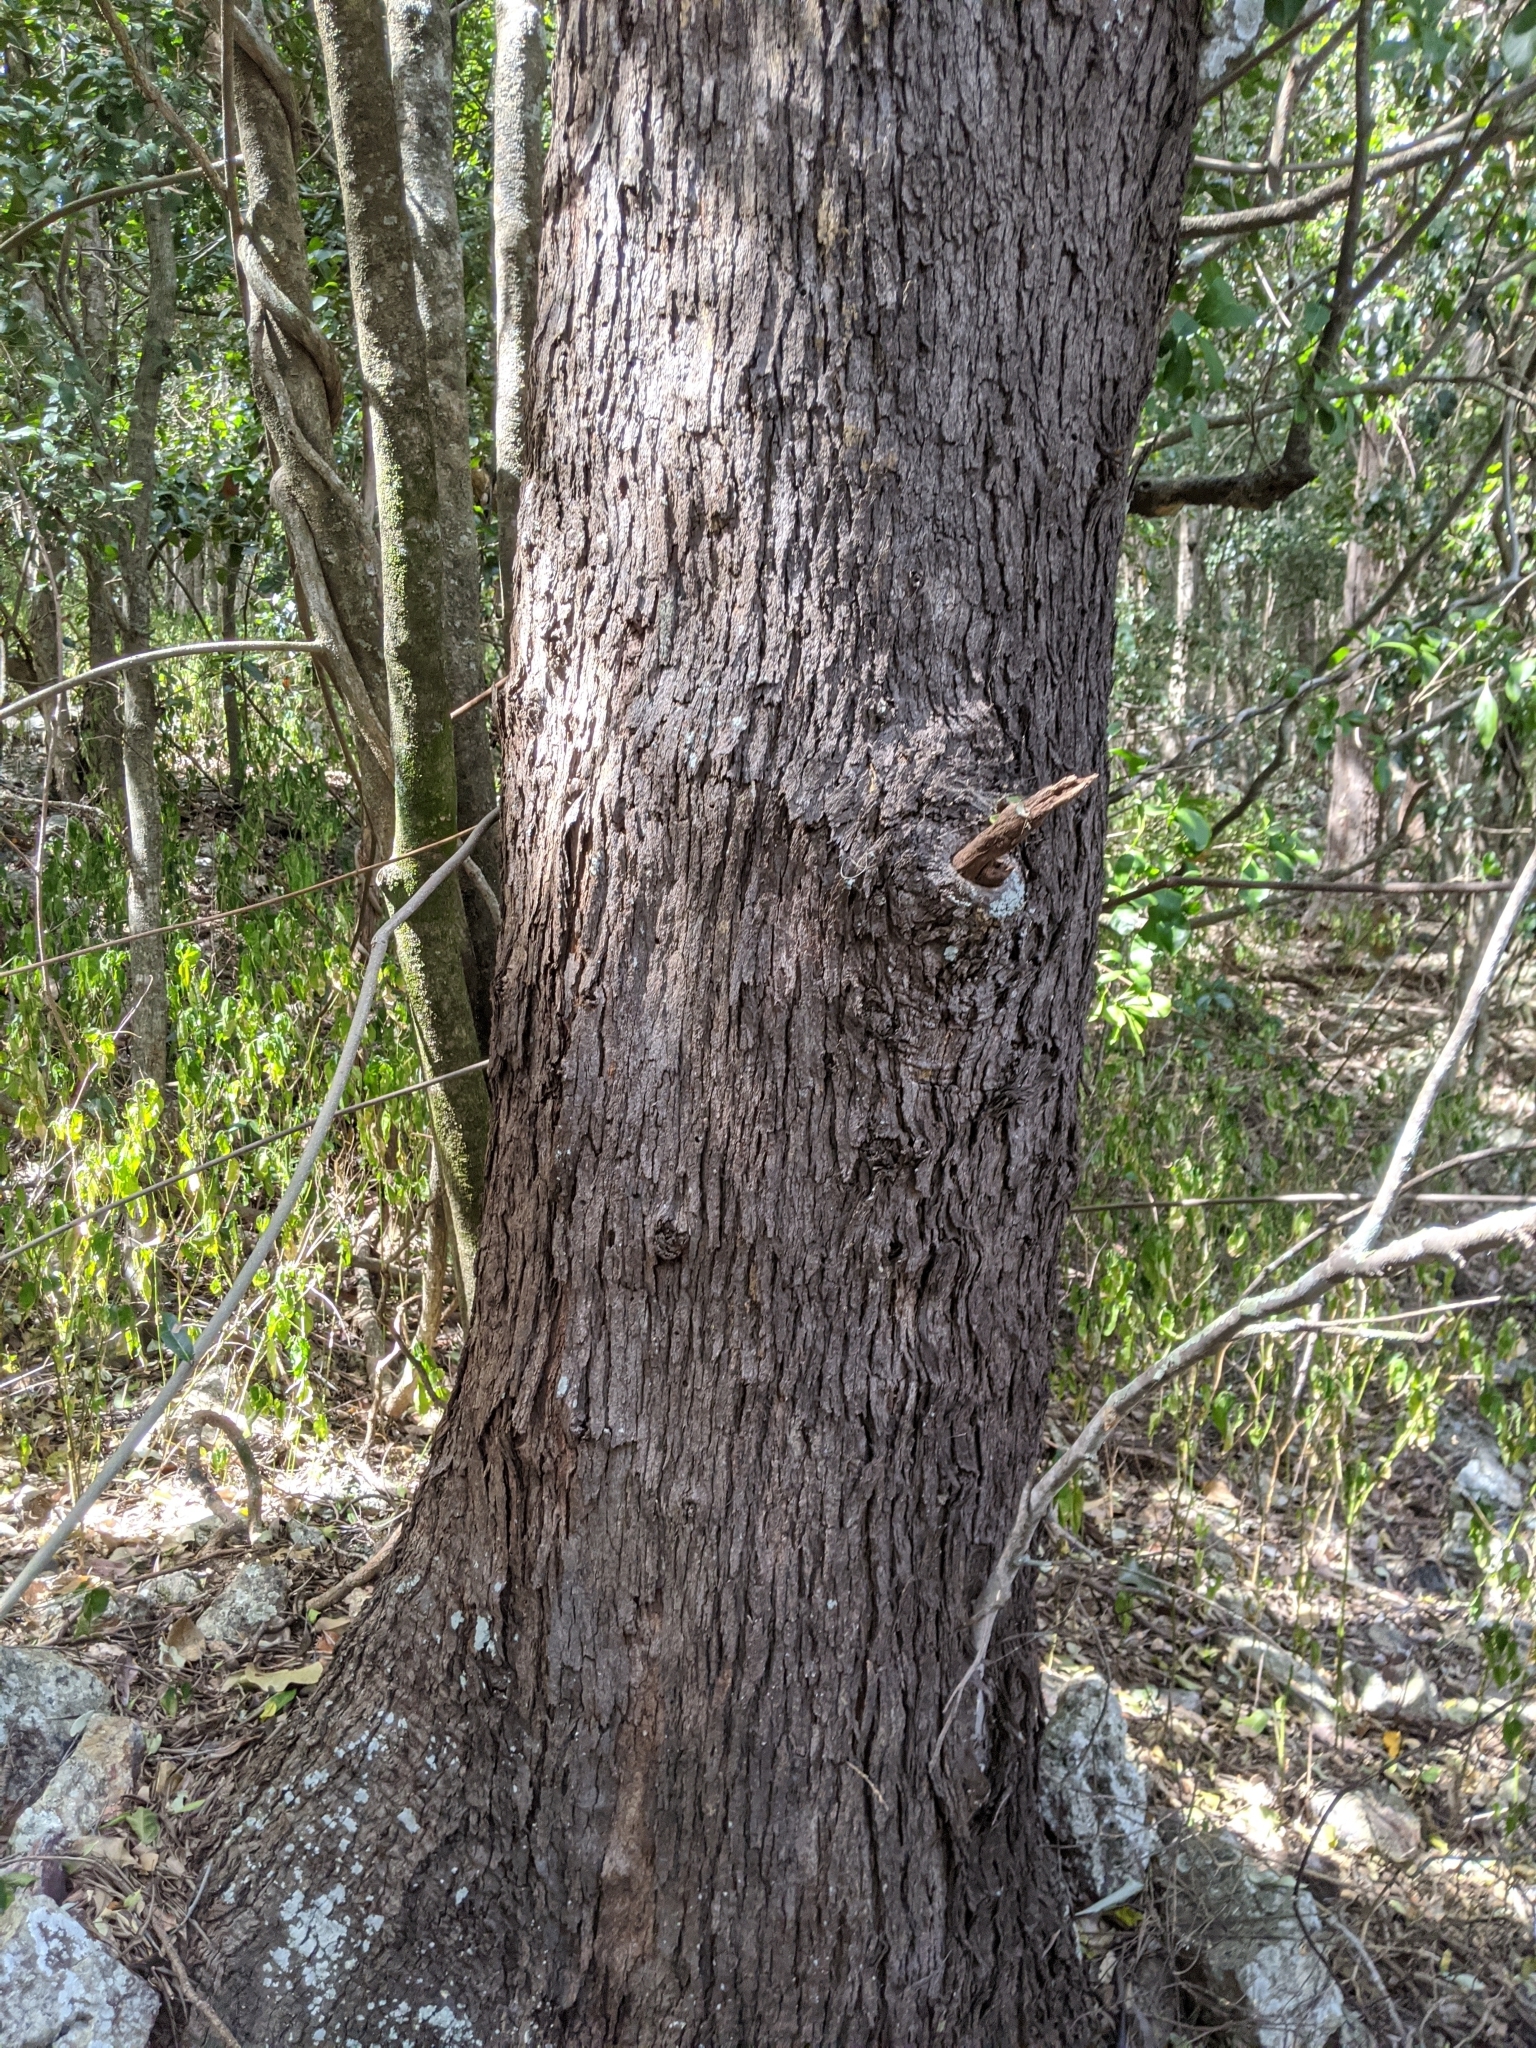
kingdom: Plantae
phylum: Tracheophyta
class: Magnoliopsida
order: Proteales
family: Proteaceae
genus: Grevillea
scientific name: Grevillea helmsiae
